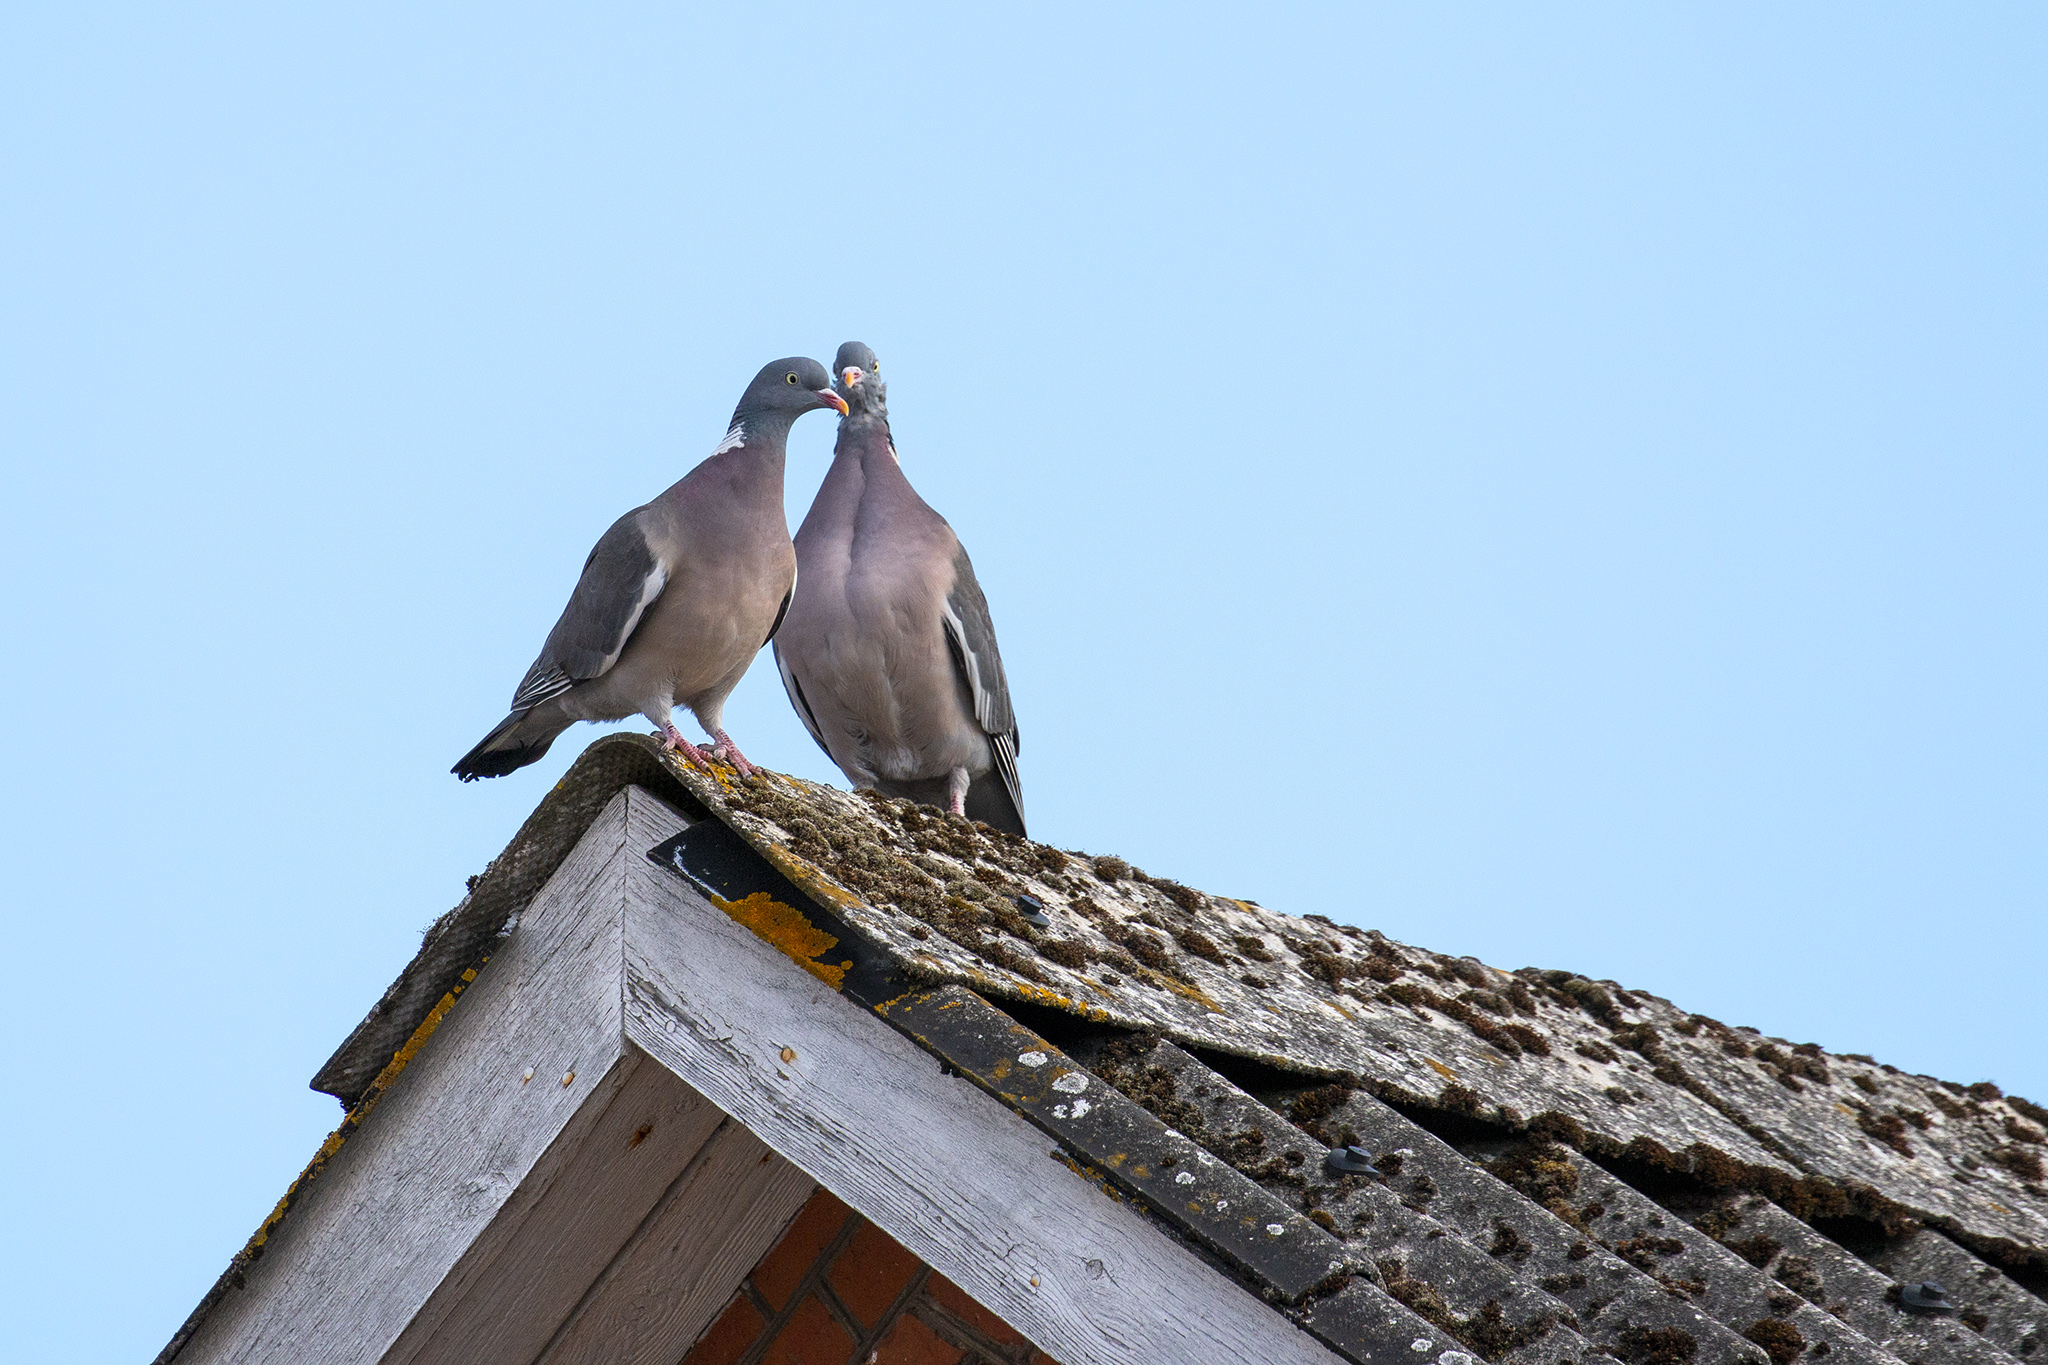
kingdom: Animalia
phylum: Chordata
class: Aves
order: Columbiformes
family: Columbidae
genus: Columba
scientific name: Columba palumbus
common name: Common wood pigeon
